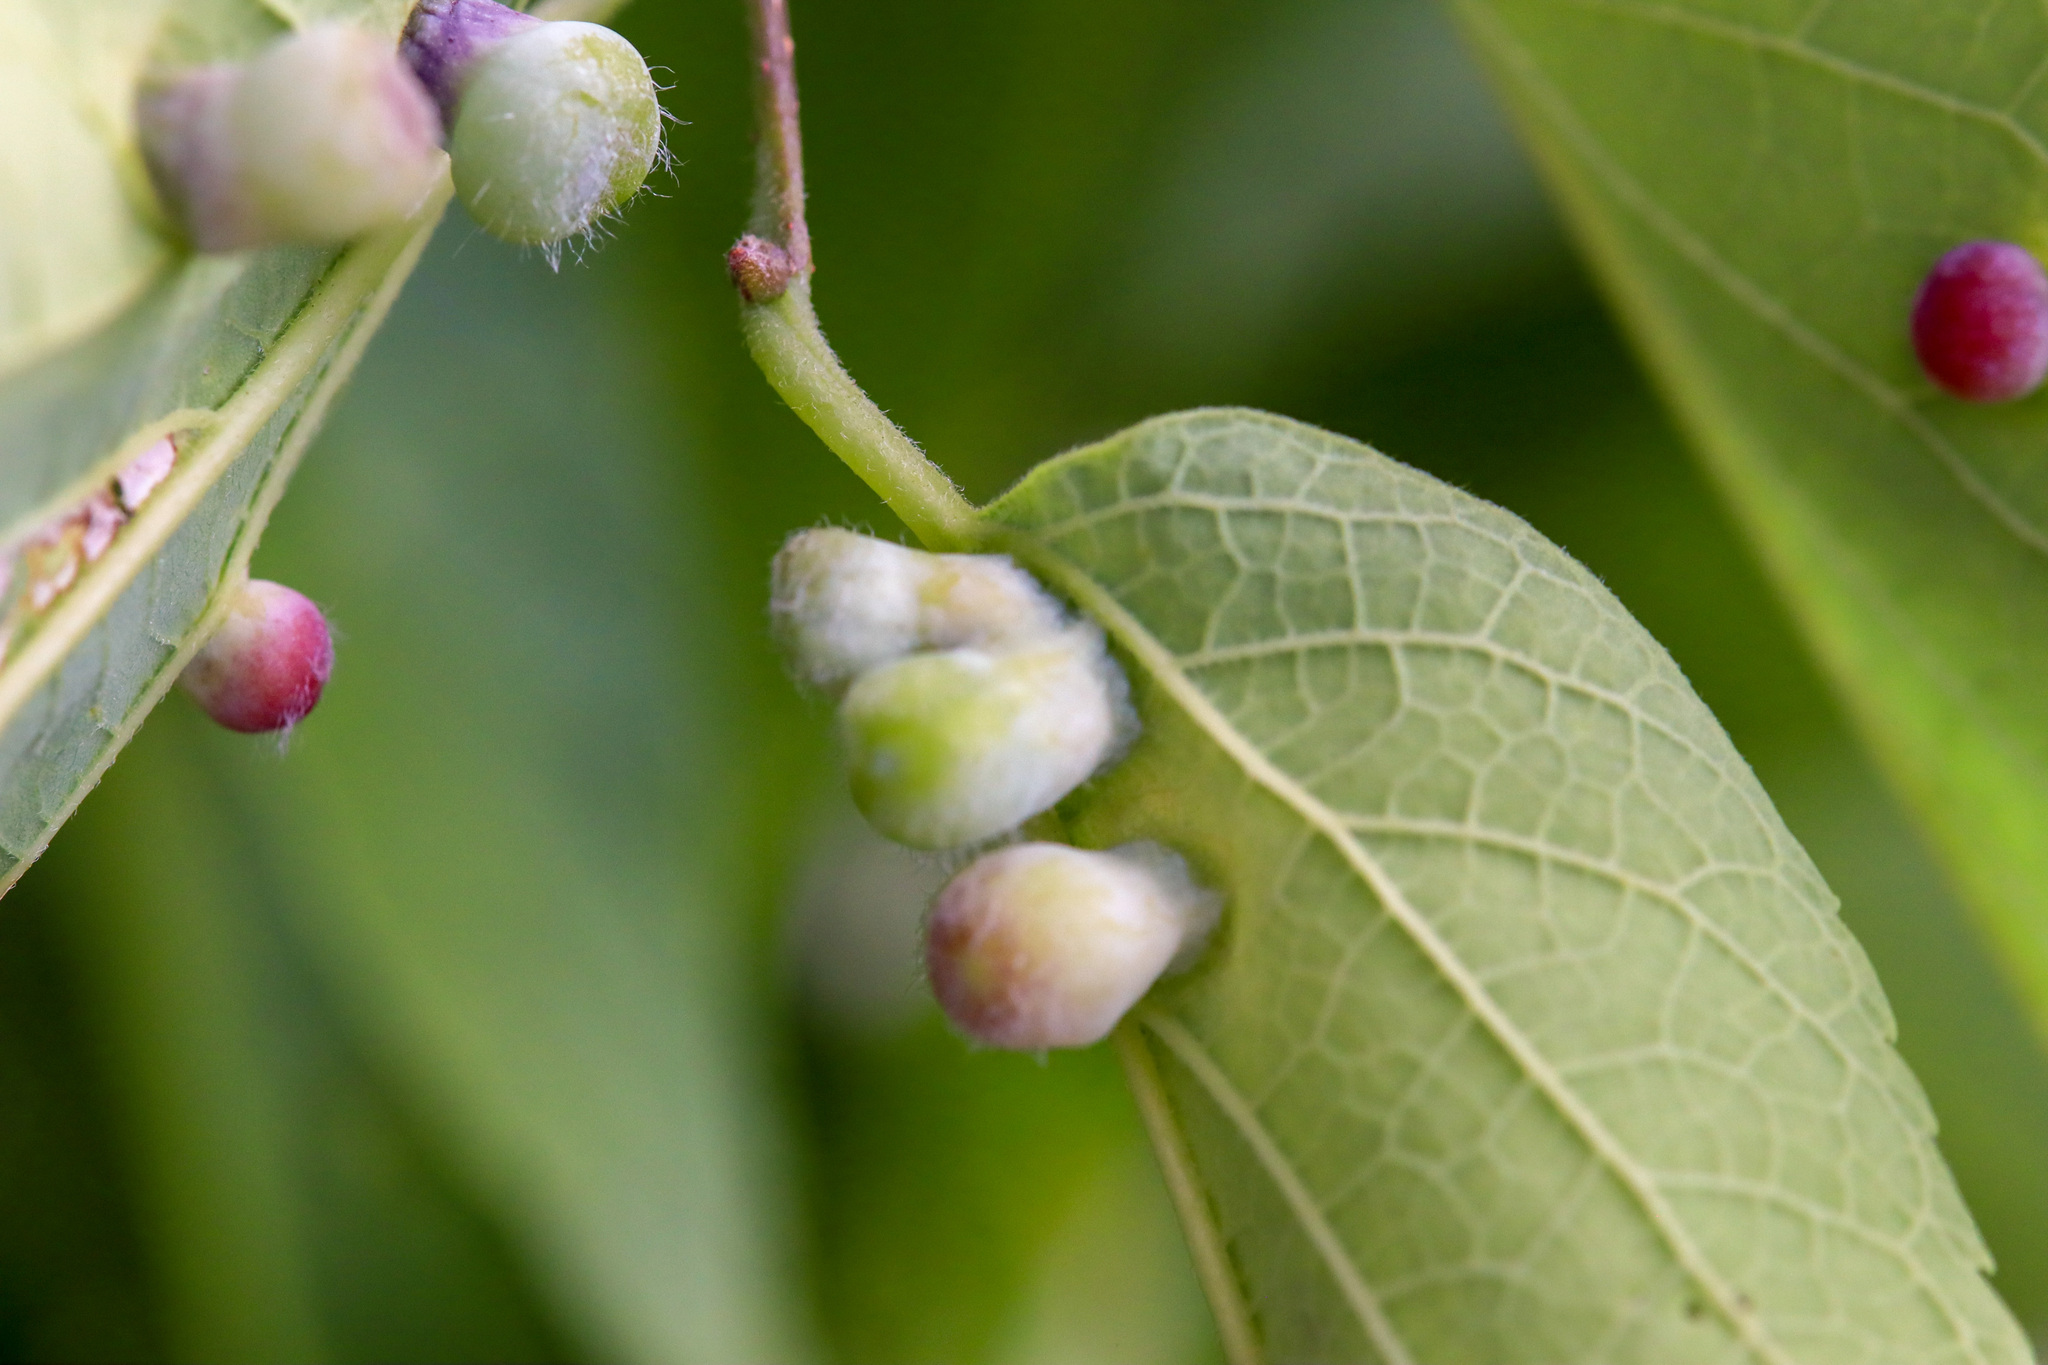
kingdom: Animalia
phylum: Arthropoda
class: Insecta
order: Hemiptera
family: Aphalaridae
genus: Pachypsylla
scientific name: Pachypsylla celtidismamma
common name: Hackberry nipplegall psyllid
